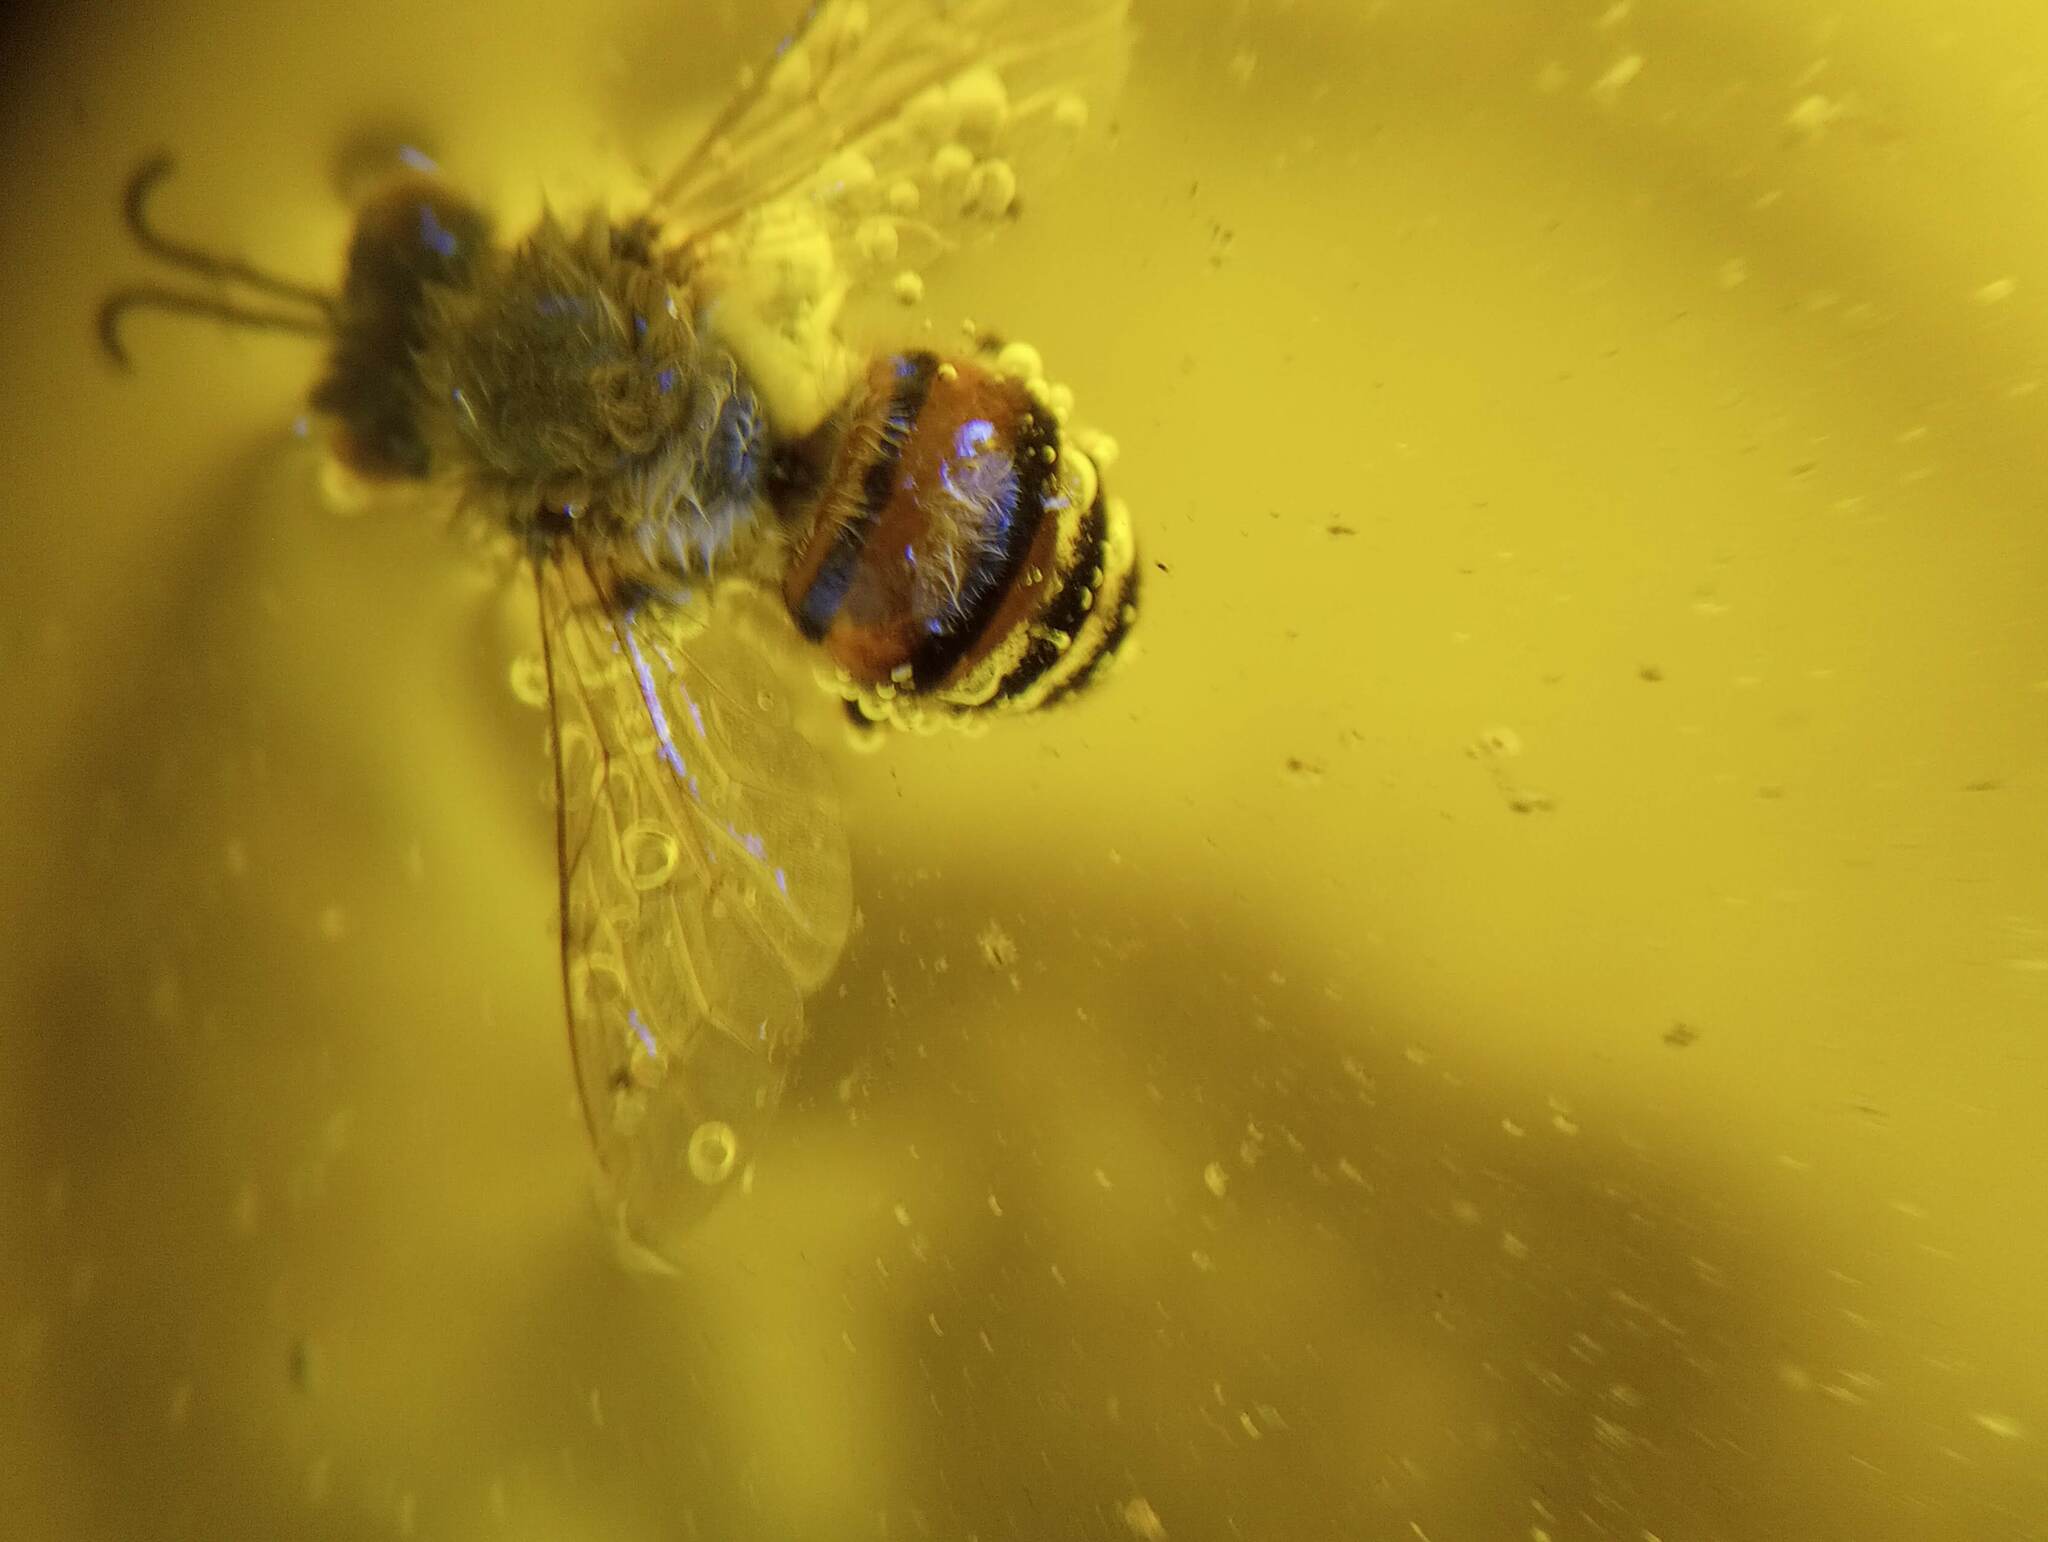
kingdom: Animalia
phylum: Arthropoda
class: Insecta
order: Hymenoptera
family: Apidae
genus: Apis
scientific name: Apis mellifera
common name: Honey bee
